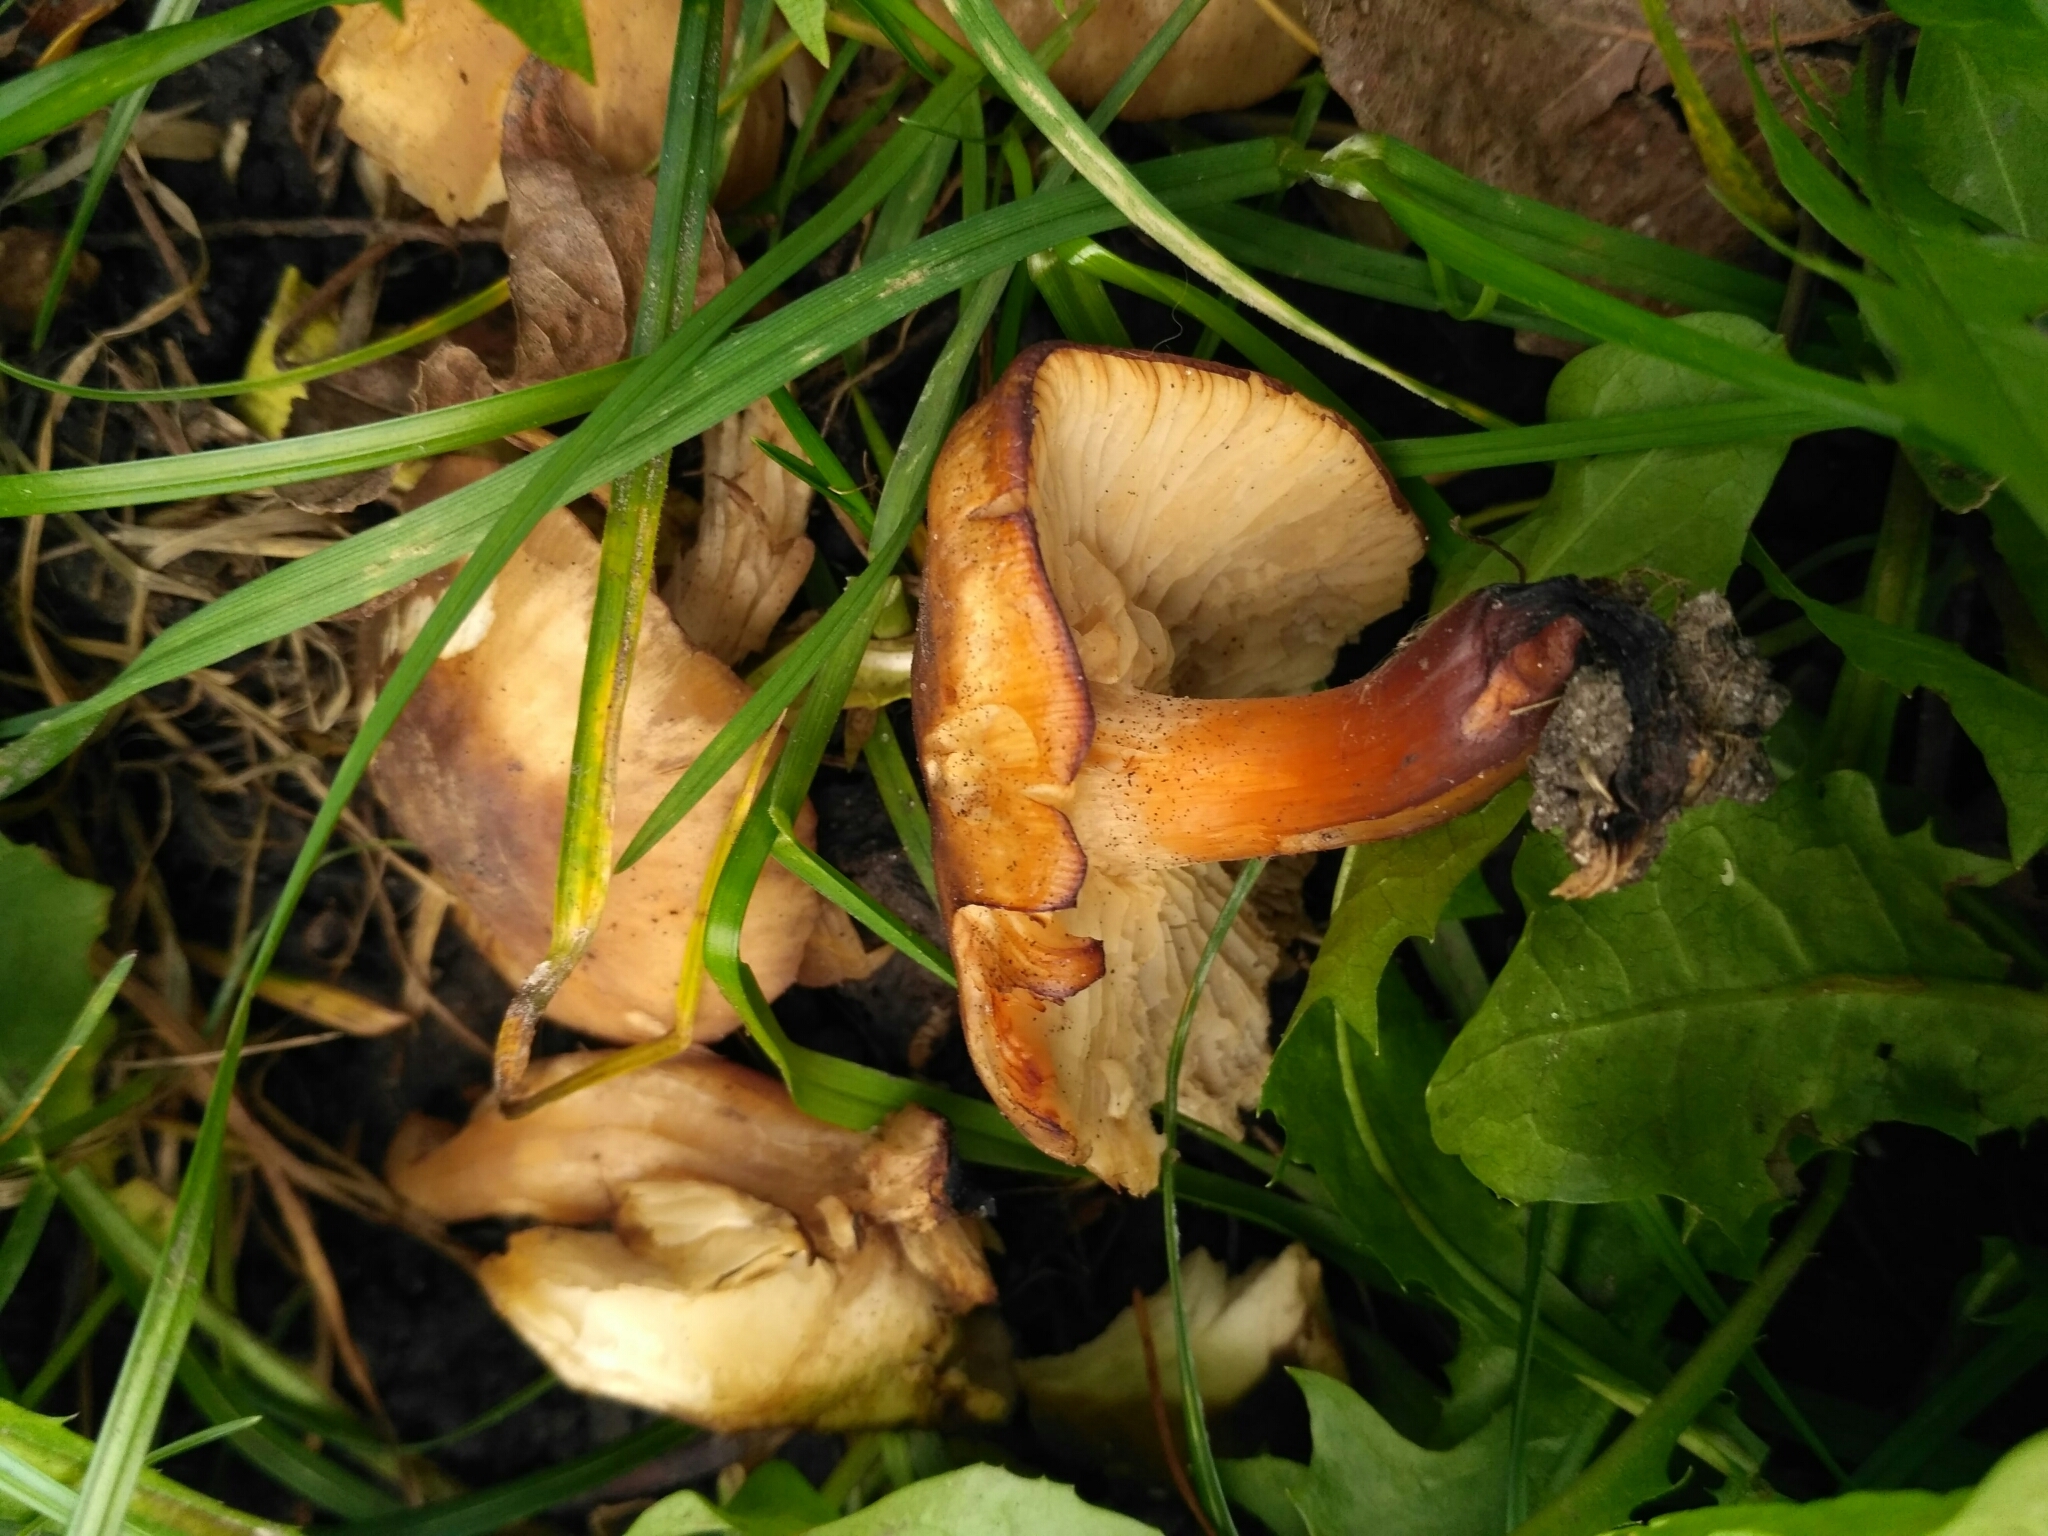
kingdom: Fungi
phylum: Basidiomycota
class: Agaricomycetes
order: Agaricales
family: Physalacriaceae
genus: Flammulina
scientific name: Flammulina
